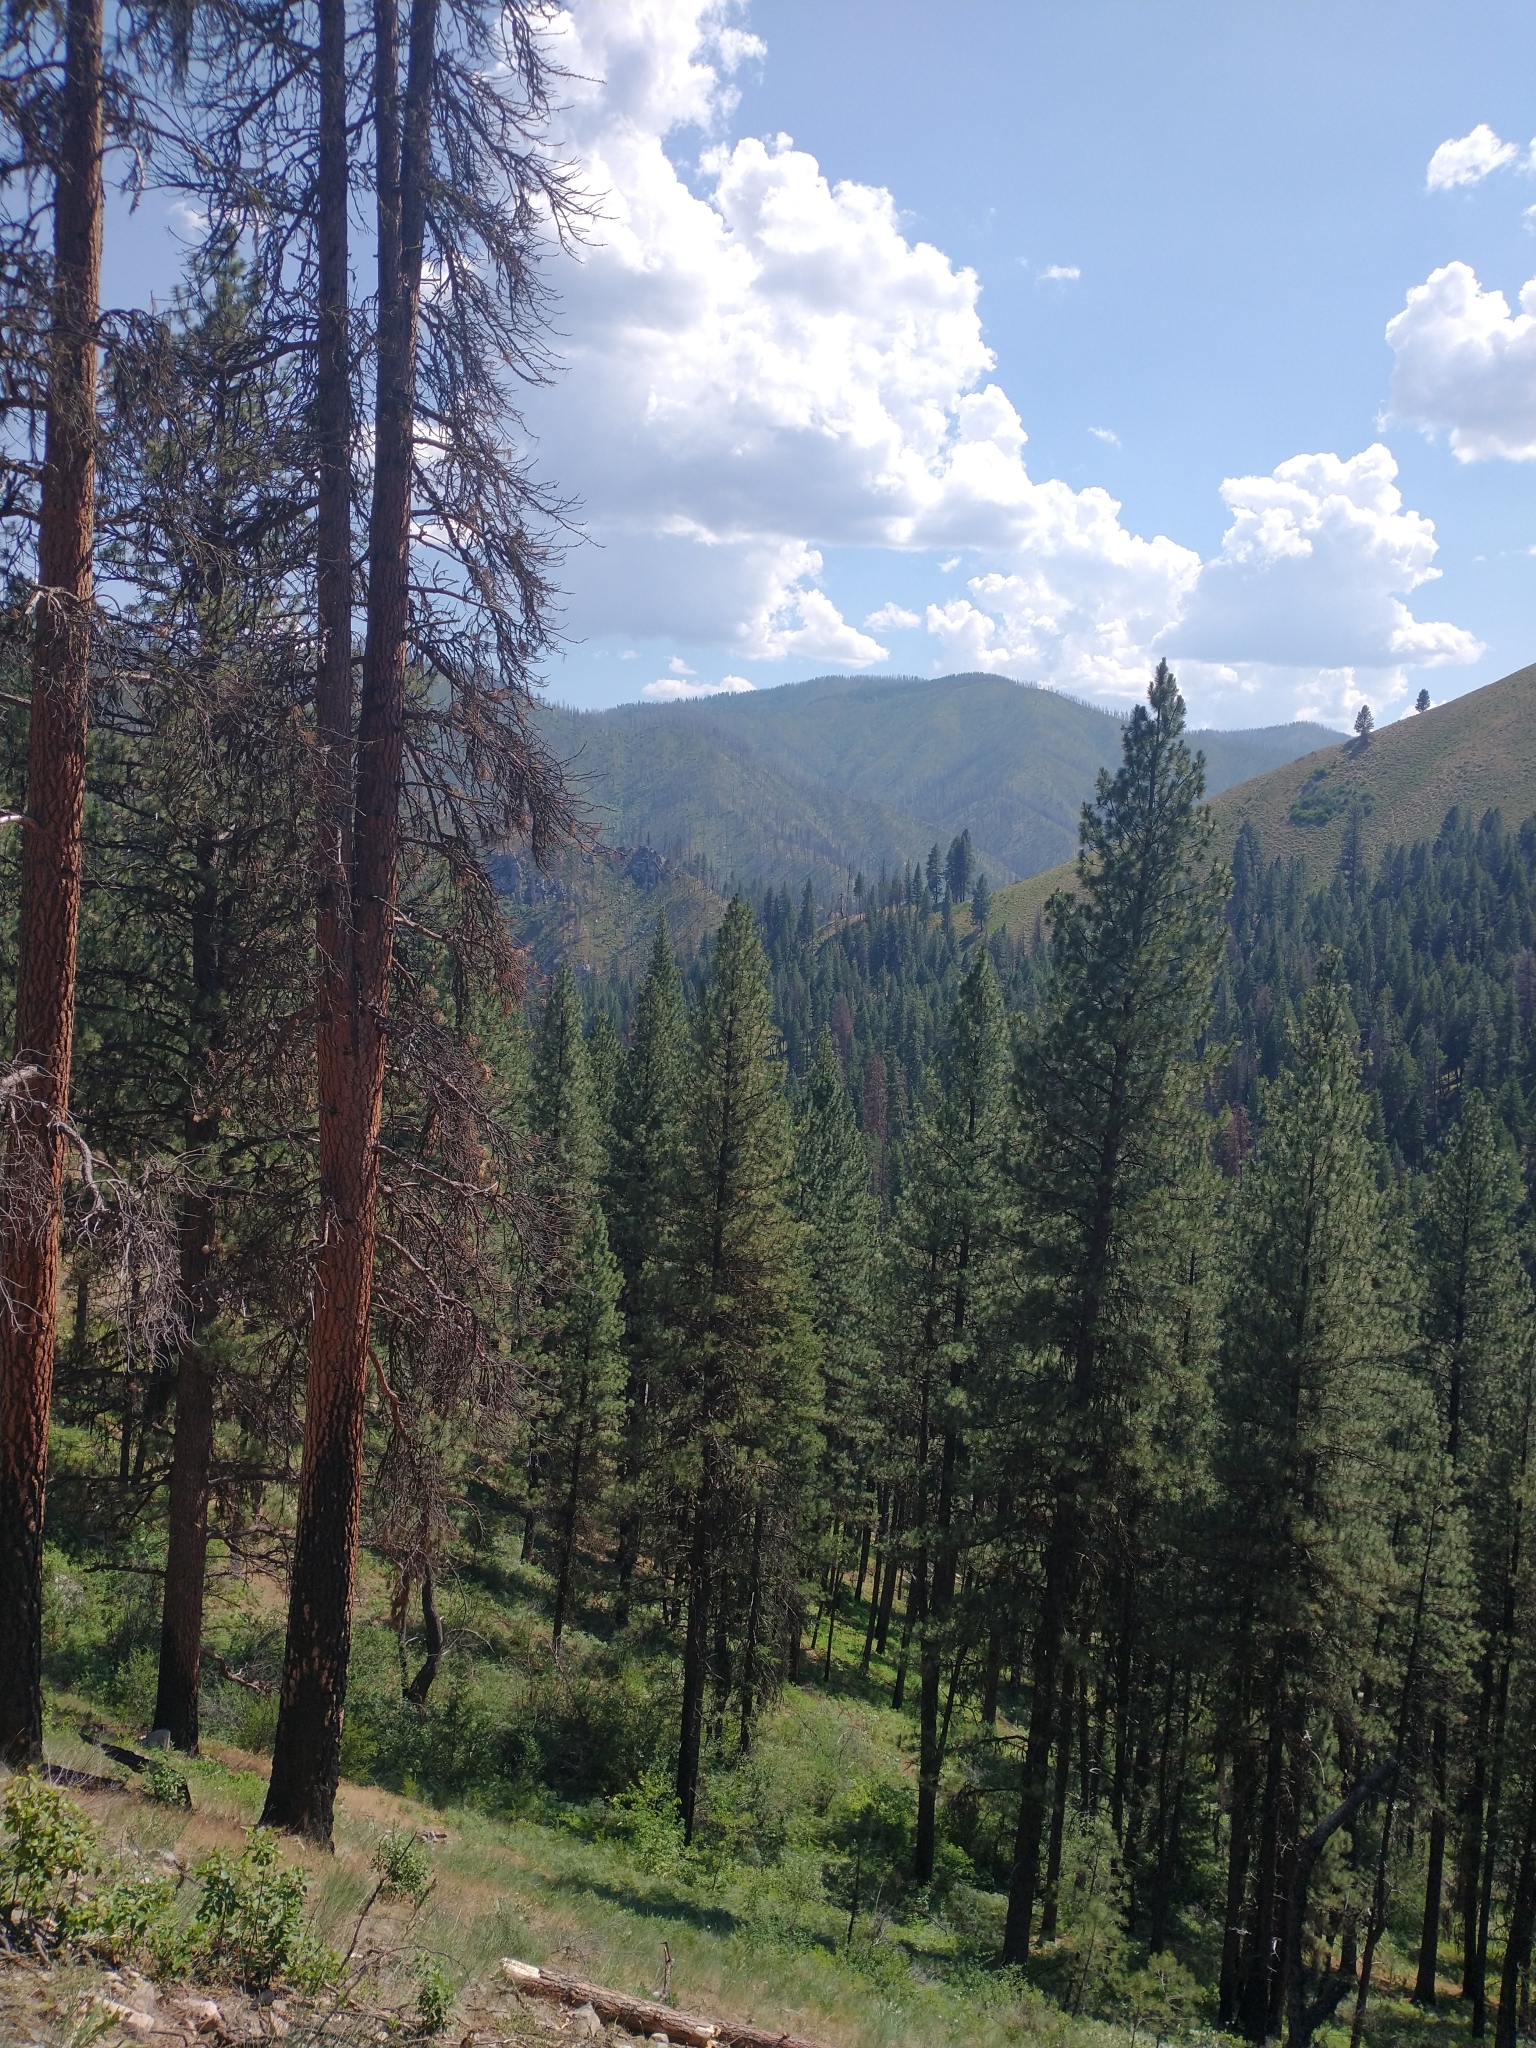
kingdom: Plantae
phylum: Tracheophyta
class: Pinopsida
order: Pinales
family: Pinaceae
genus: Pinus
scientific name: Pinus ponderosa
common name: Western yellow-pine
